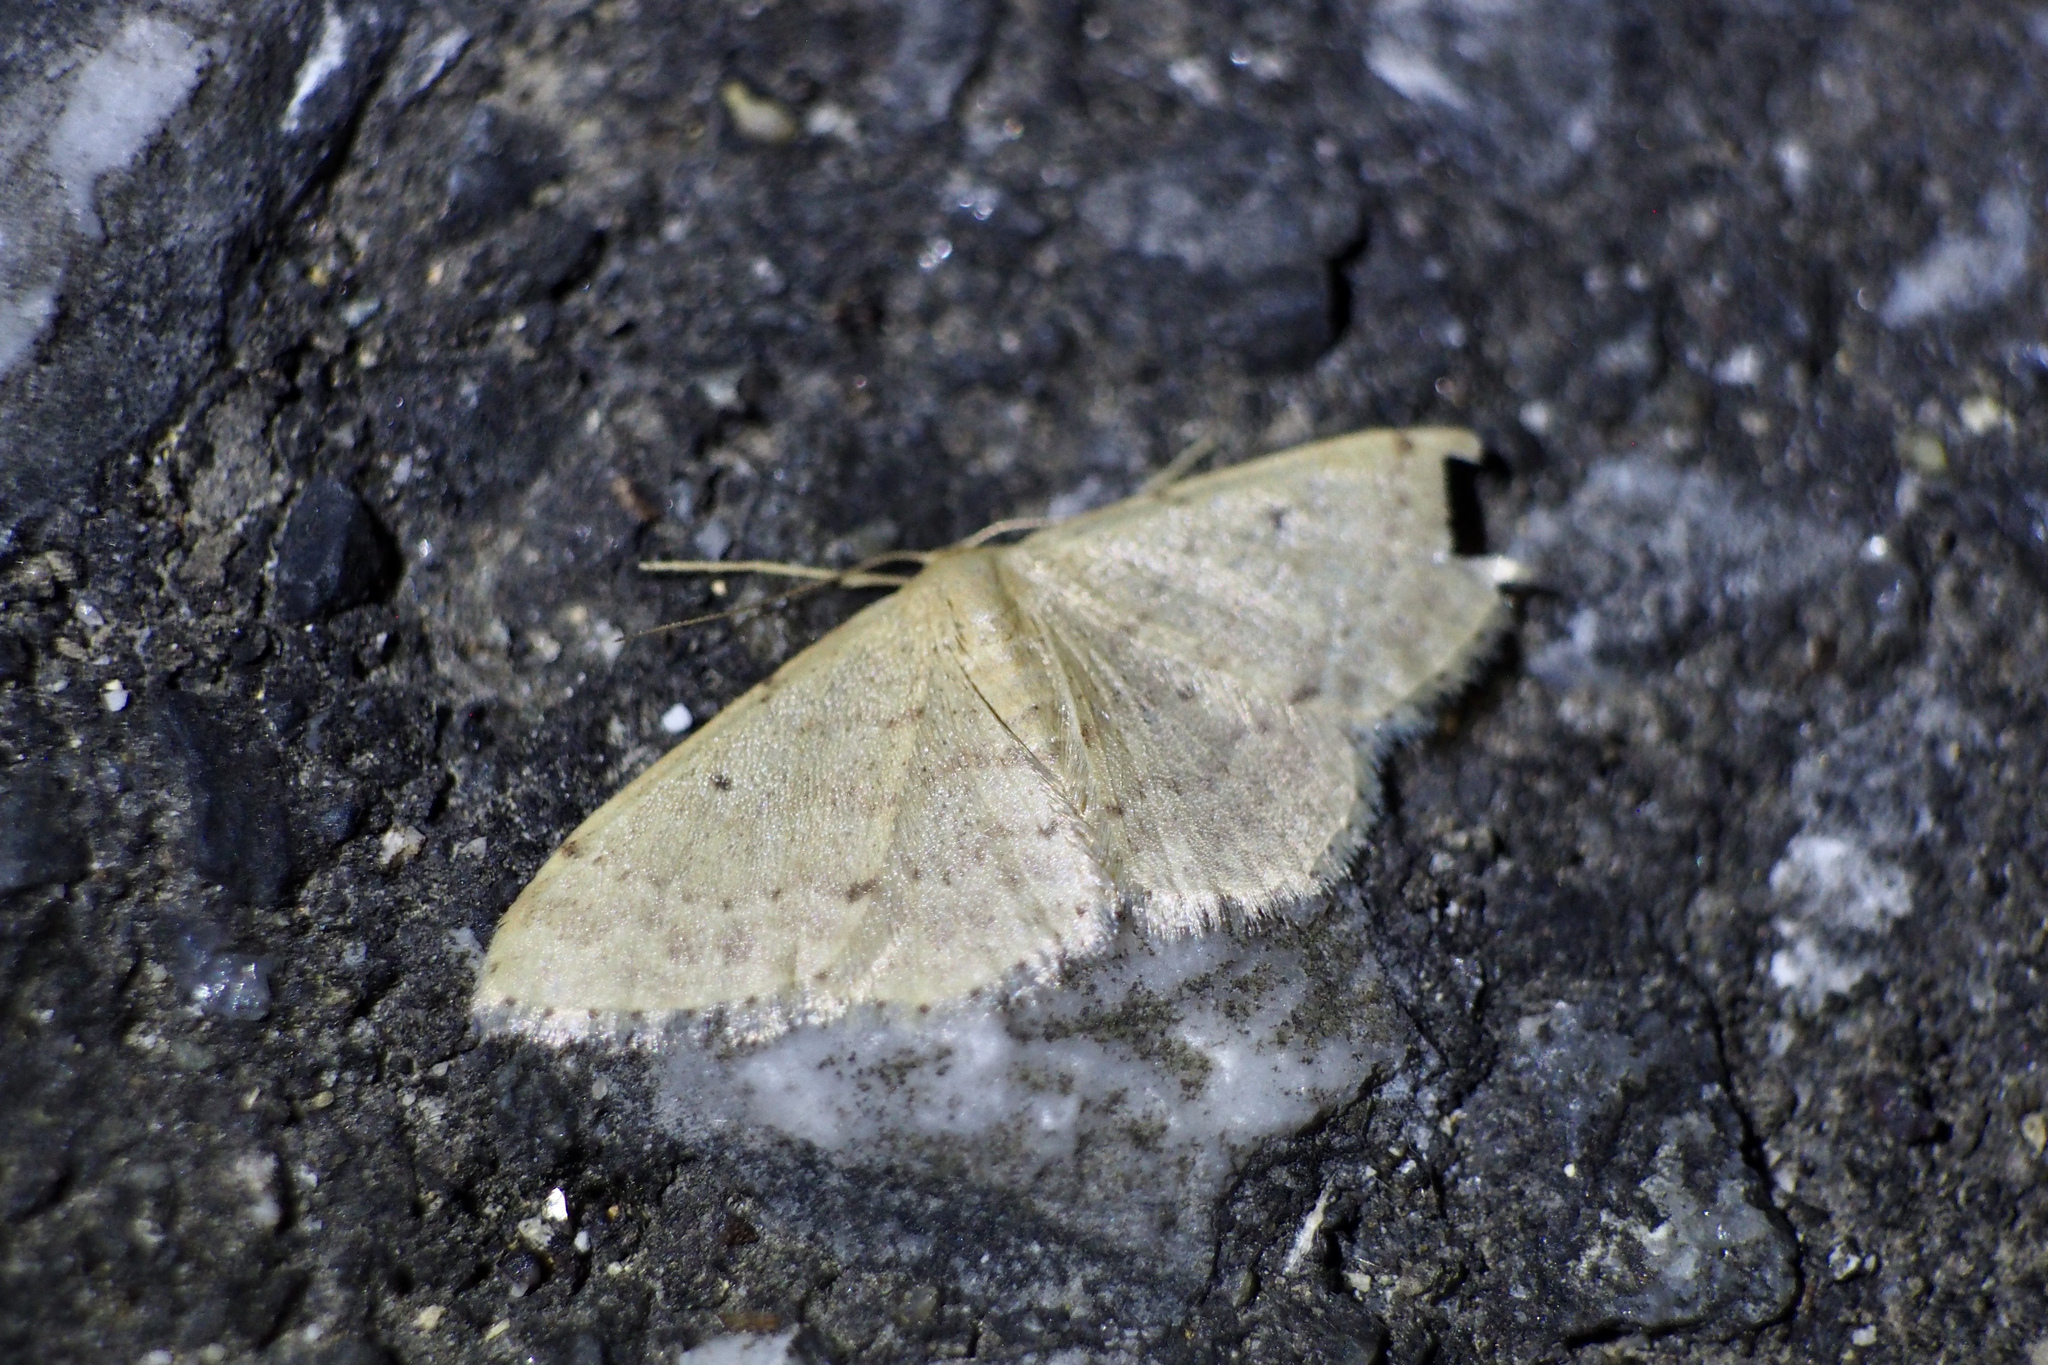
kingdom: Animalia
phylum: Arthropoda
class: Insecta
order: Lepidoptera
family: Geometridae
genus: Idaea
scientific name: Idaea invalida
